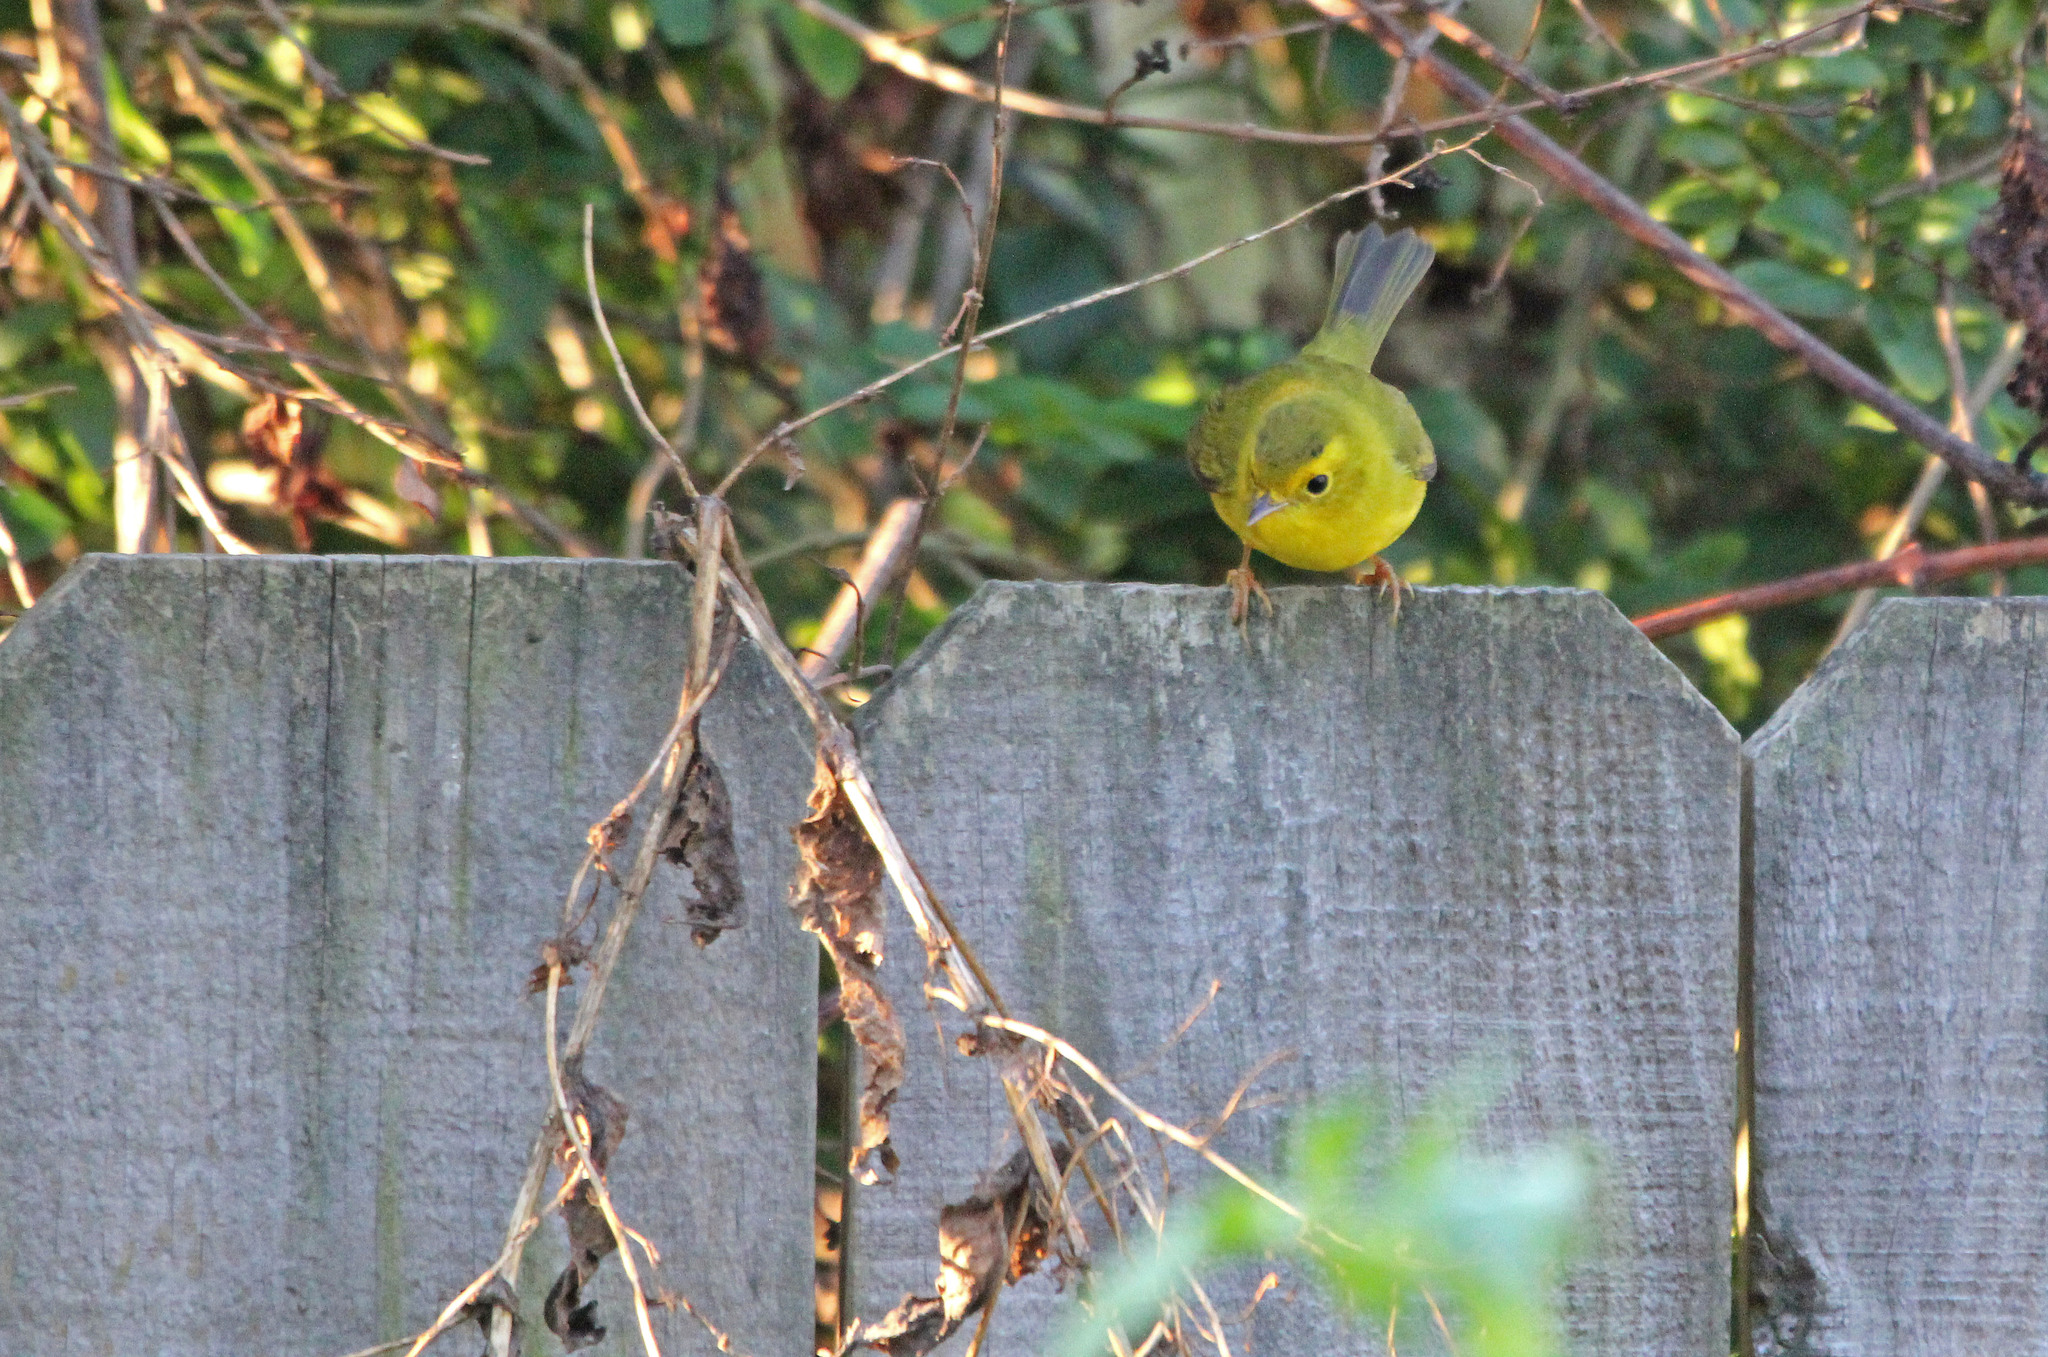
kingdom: Animalia
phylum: Chordata
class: Aves
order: Passeriformes
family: Parulidae
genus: Cardellina
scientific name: Cardellina pusilla
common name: Wilson's warbler
